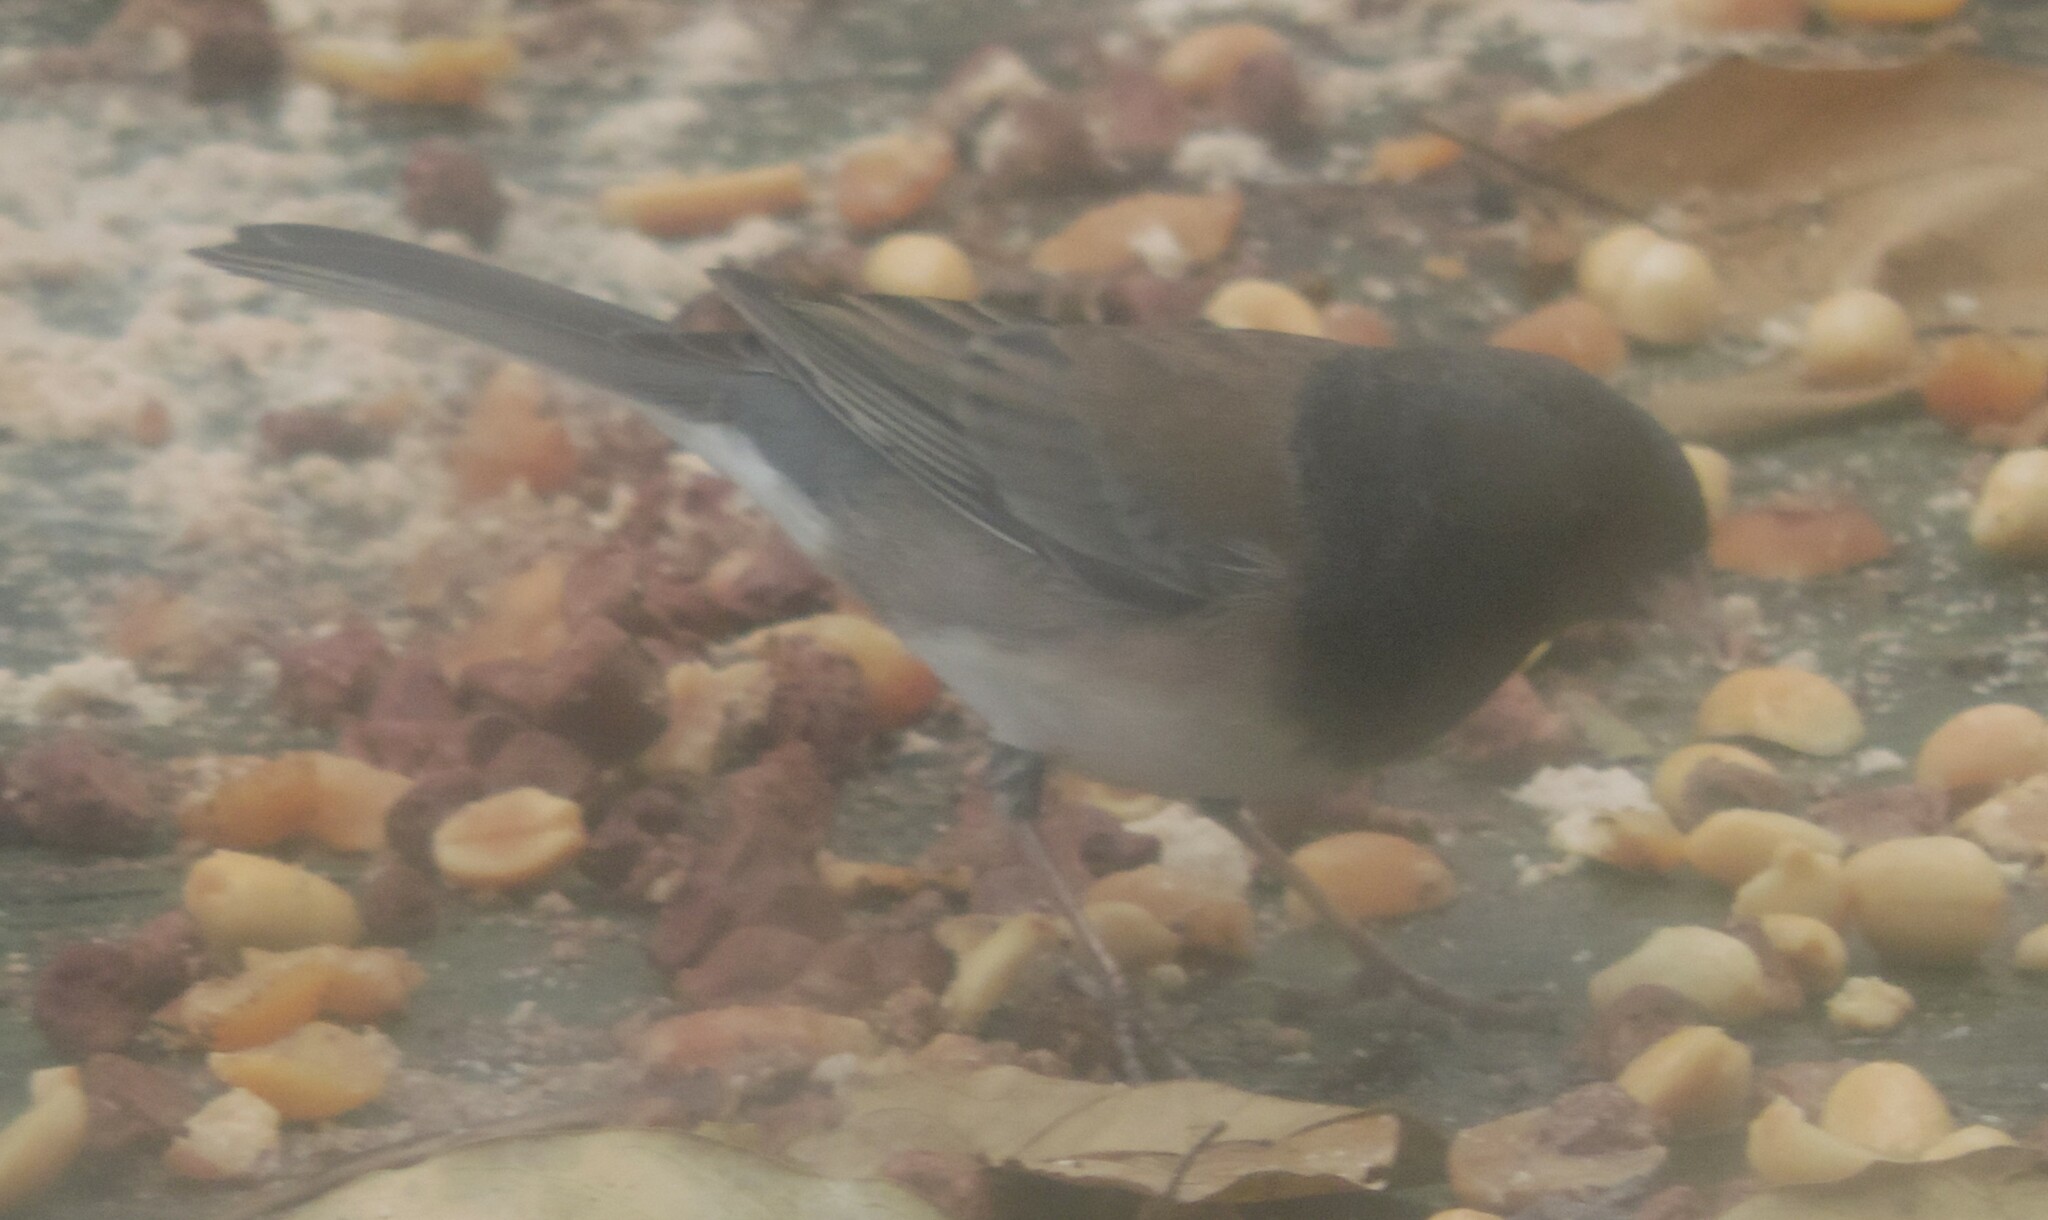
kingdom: Animalia
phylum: Chordata
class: Aves
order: Passeriformes
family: Passerellidae
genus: Junco
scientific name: Junco hyemalis
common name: Dark-eyed junco
